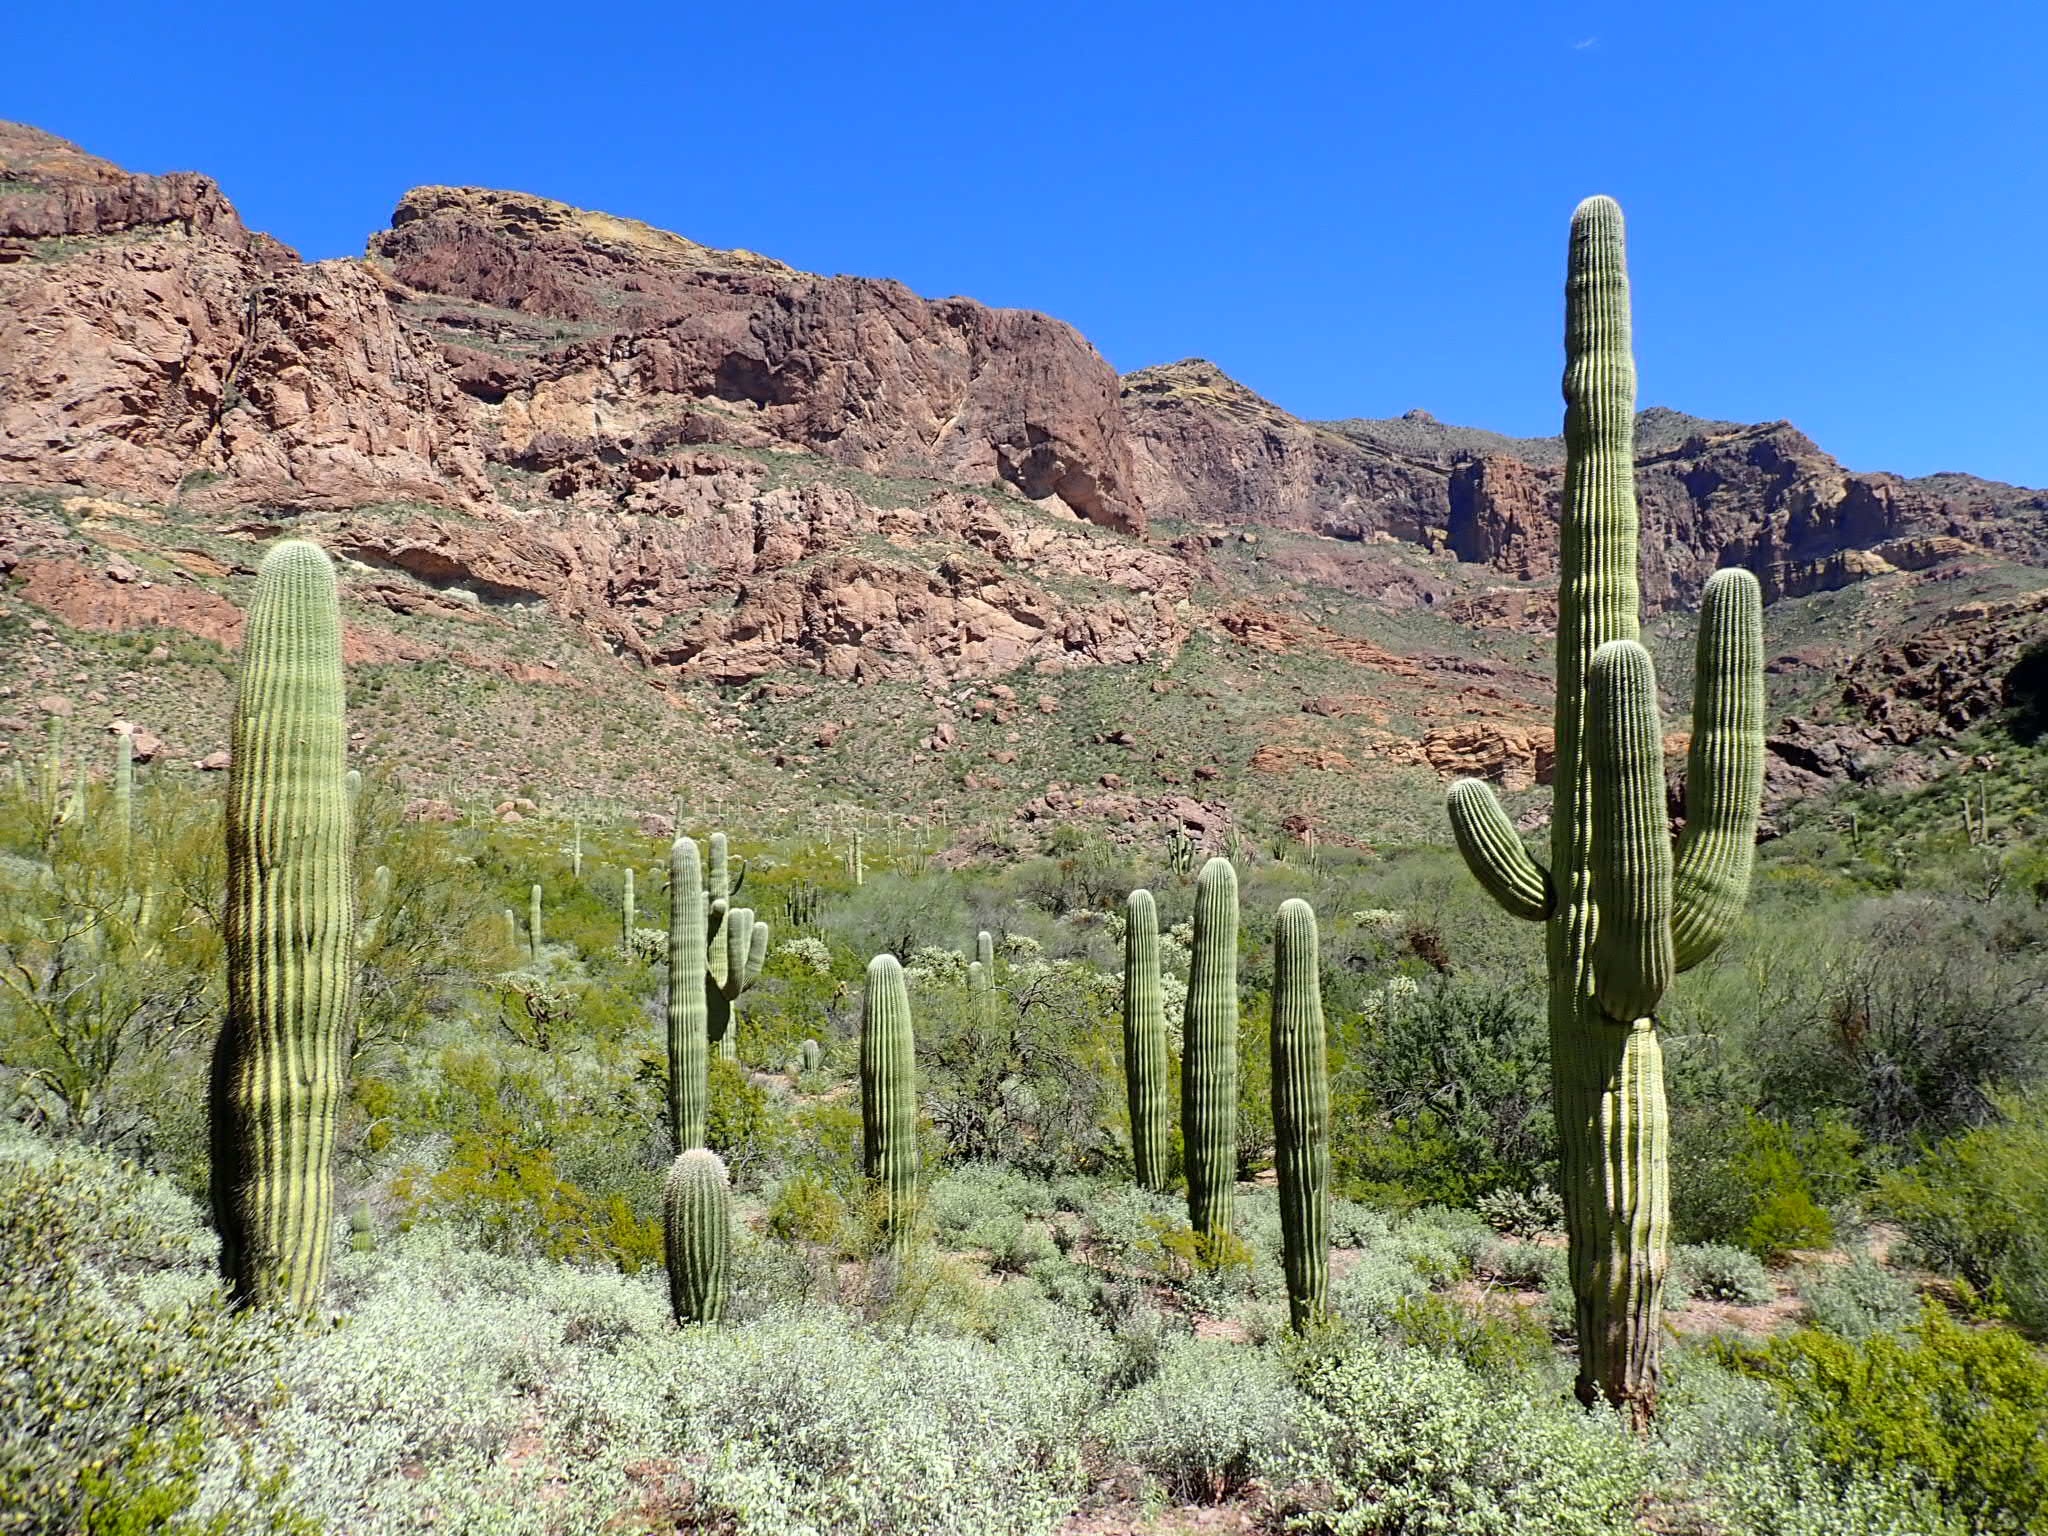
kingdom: Plantae
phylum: Tracheophyta
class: Magnoliopsida
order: Caryophyllales
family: Cactaceae
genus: Carnegiea
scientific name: Carnegiea gigantea
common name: Saguaro
